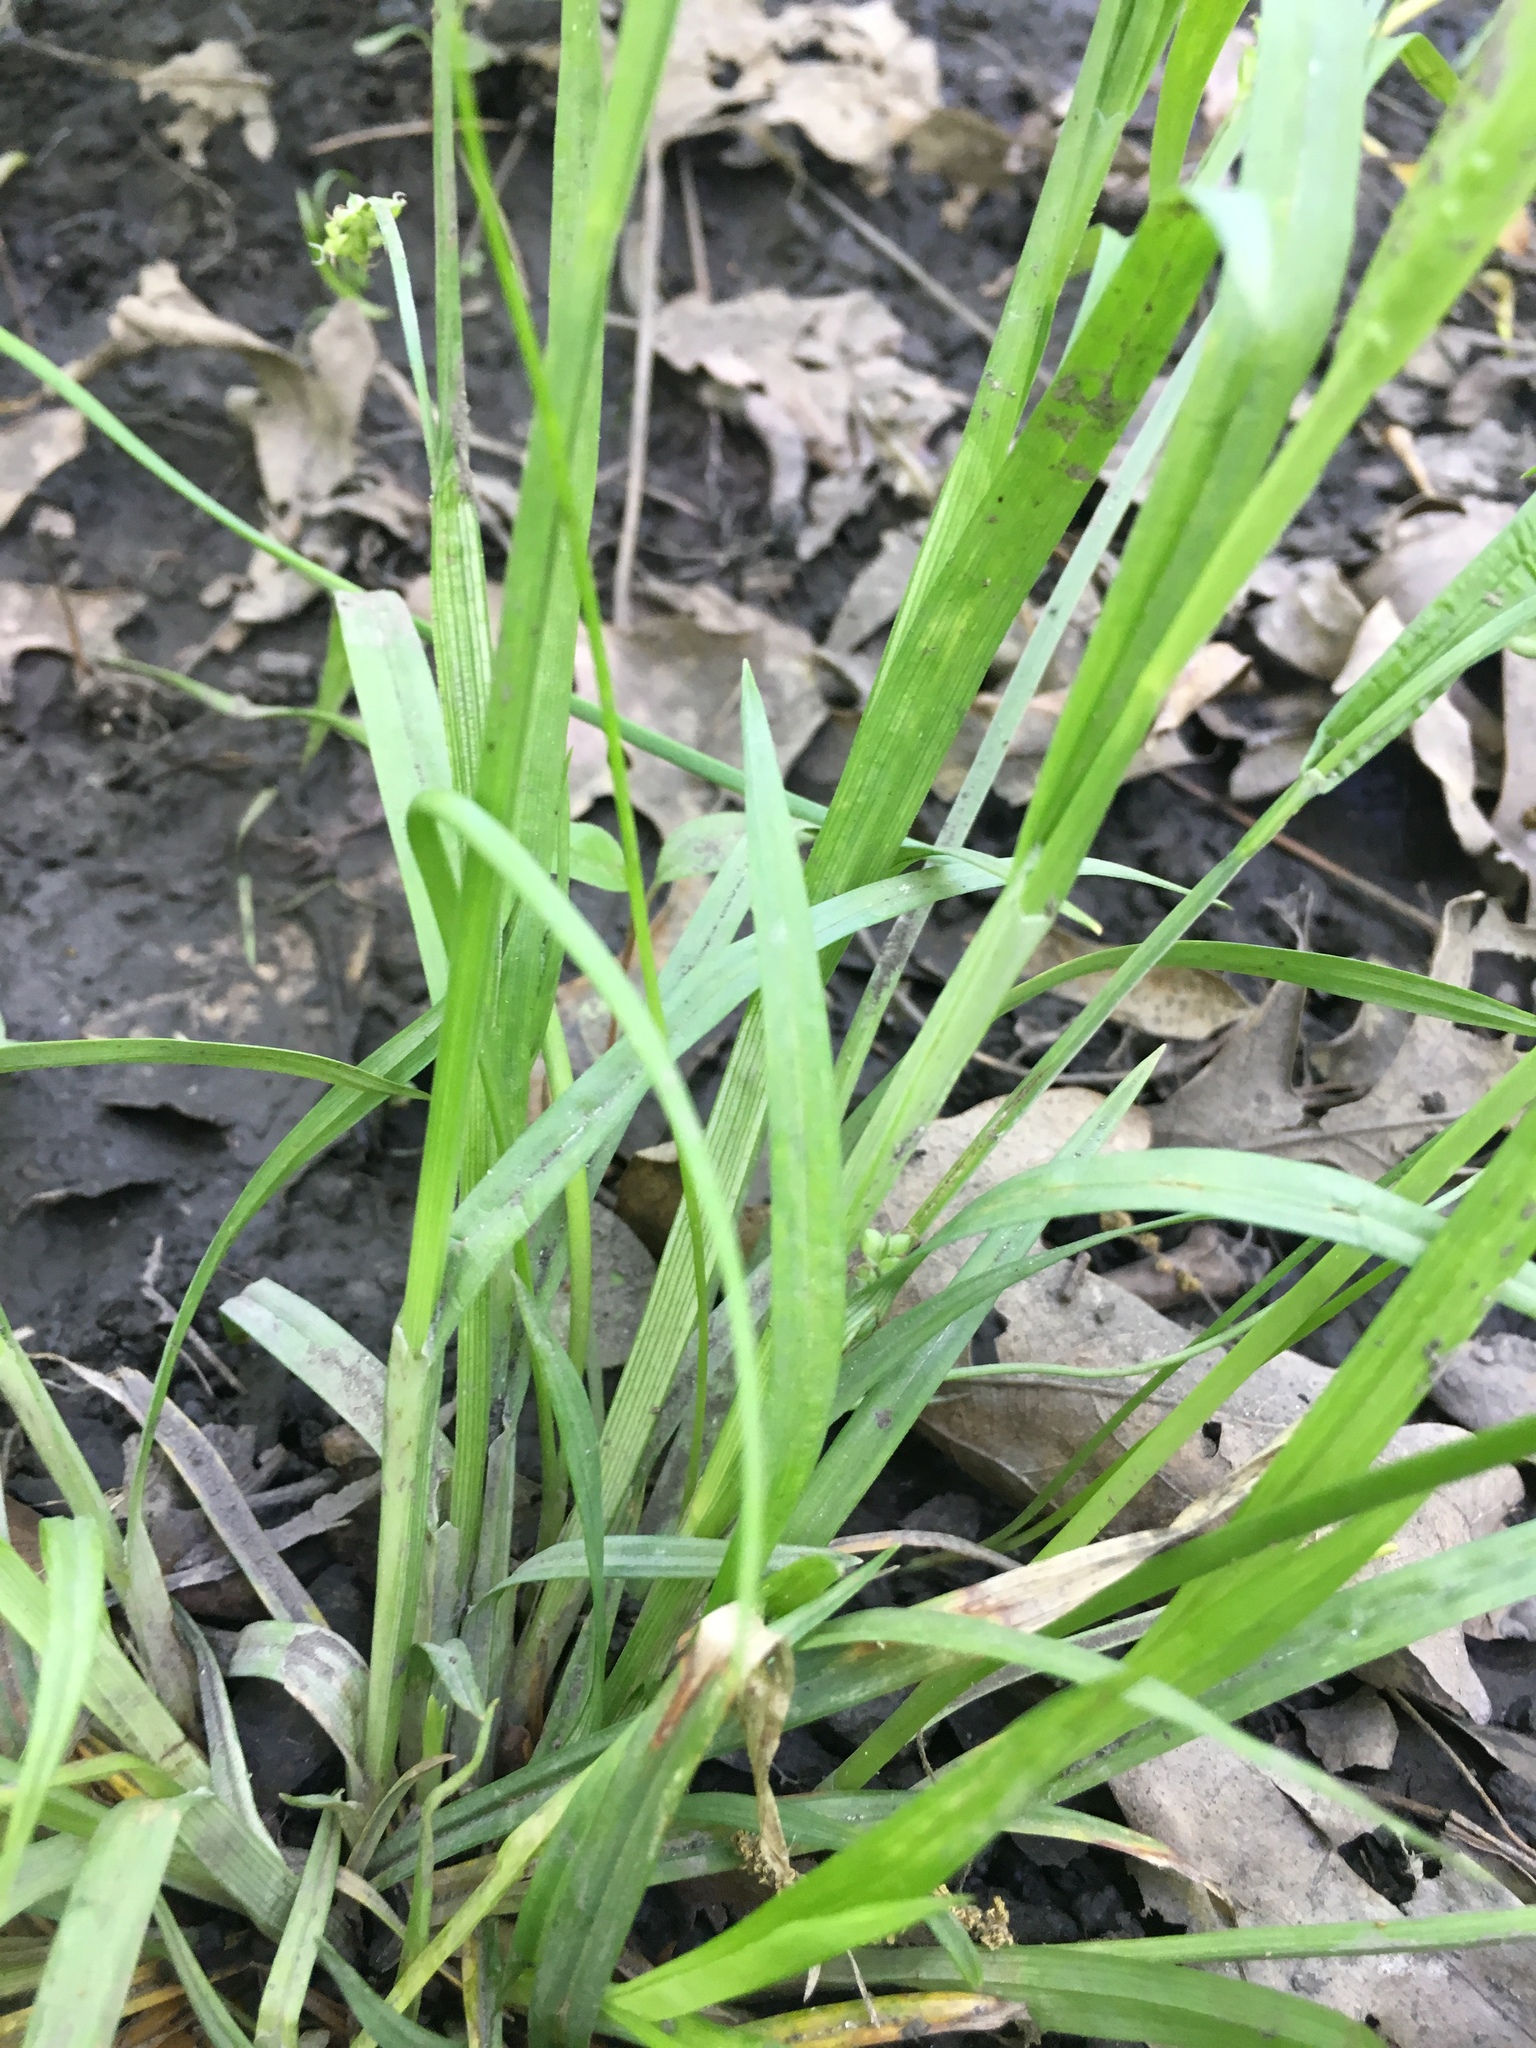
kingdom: Plantae
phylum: Tracheophyta
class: Liliopsida
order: Poales
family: Cyperaceae
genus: Carex
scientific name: Carex blanda
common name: Bland sedge
